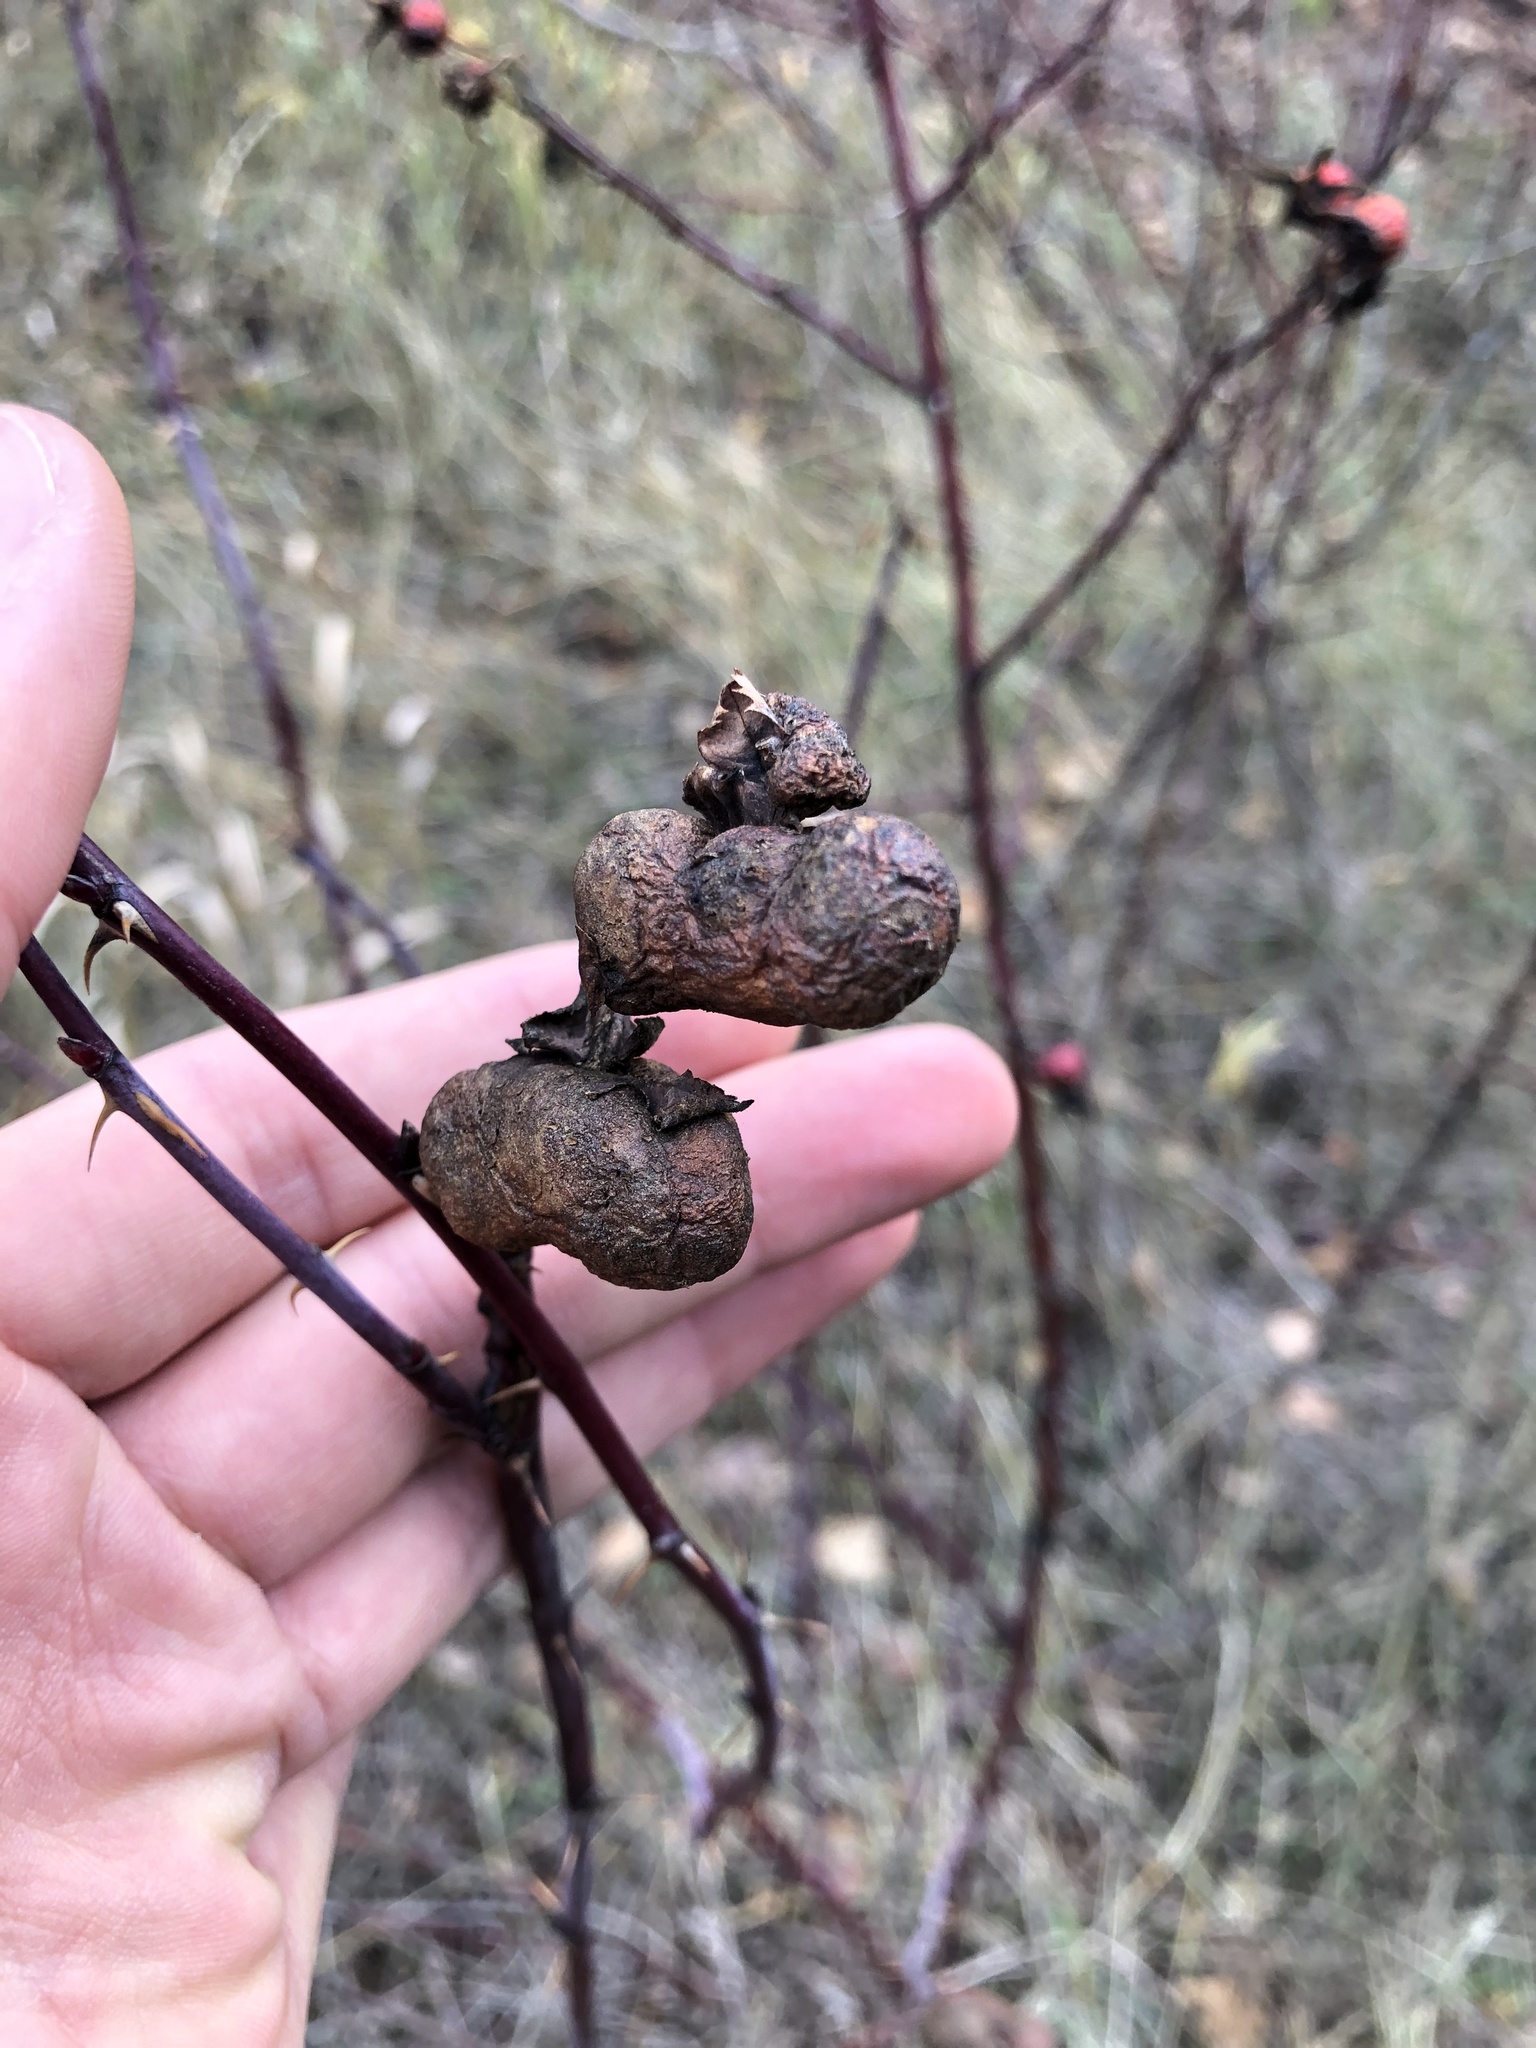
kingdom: Animalia
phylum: Arthropoda
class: Insecta
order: Hymenoptera
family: Cynipidae
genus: Diplolepis
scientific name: Diplolepis variabilis
